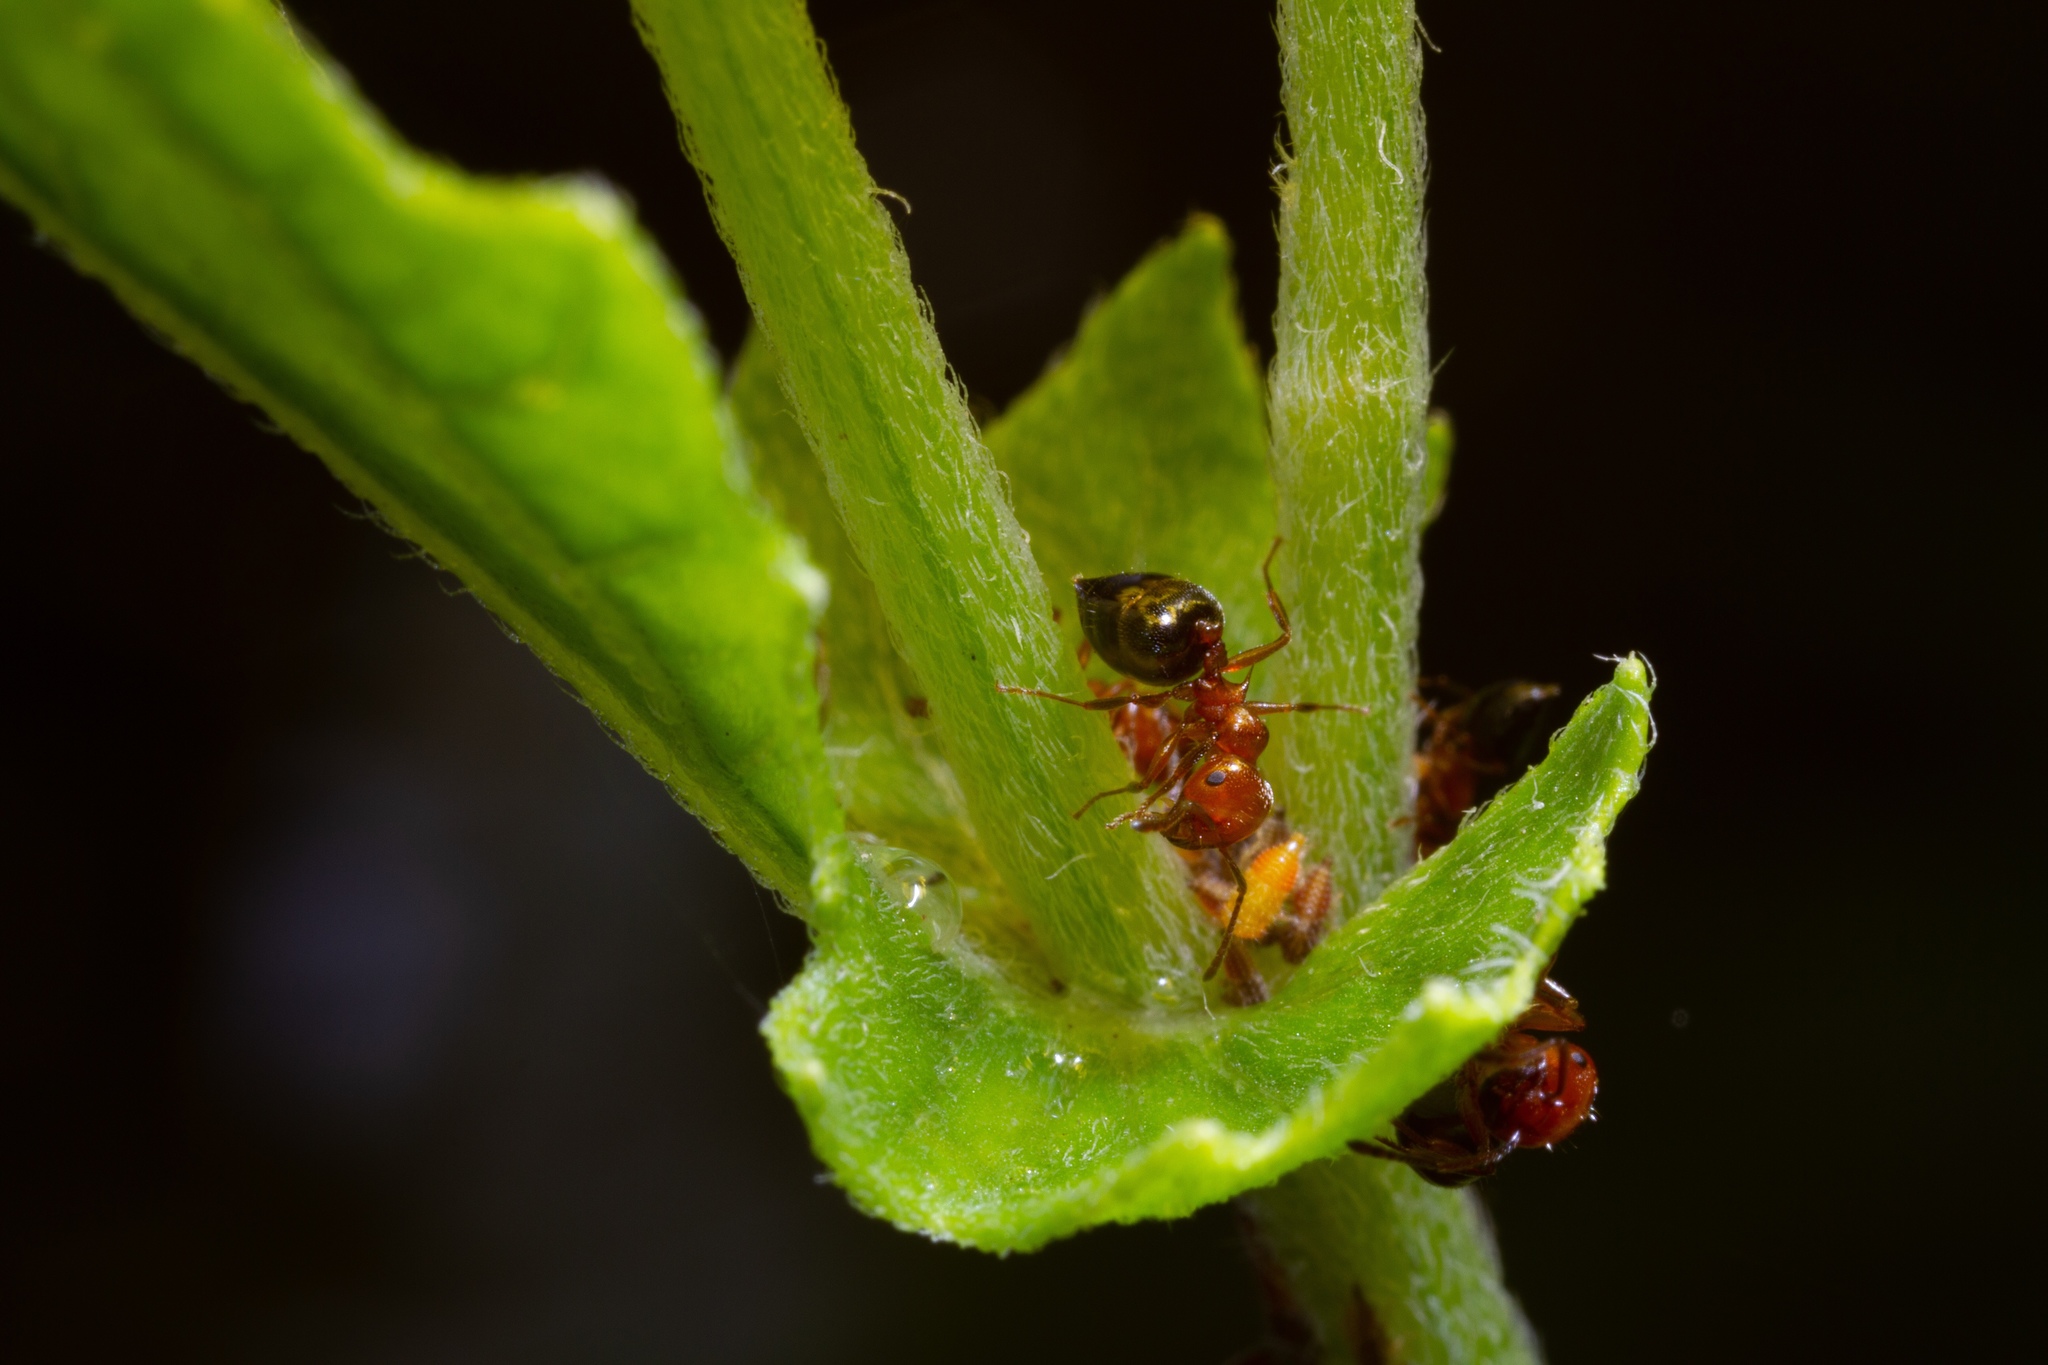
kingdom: Animalia
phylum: Arthropoda
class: Insecta
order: Hymenoptera
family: Formicidae
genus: Crematogaster
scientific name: Crematogaster laeviuscula
